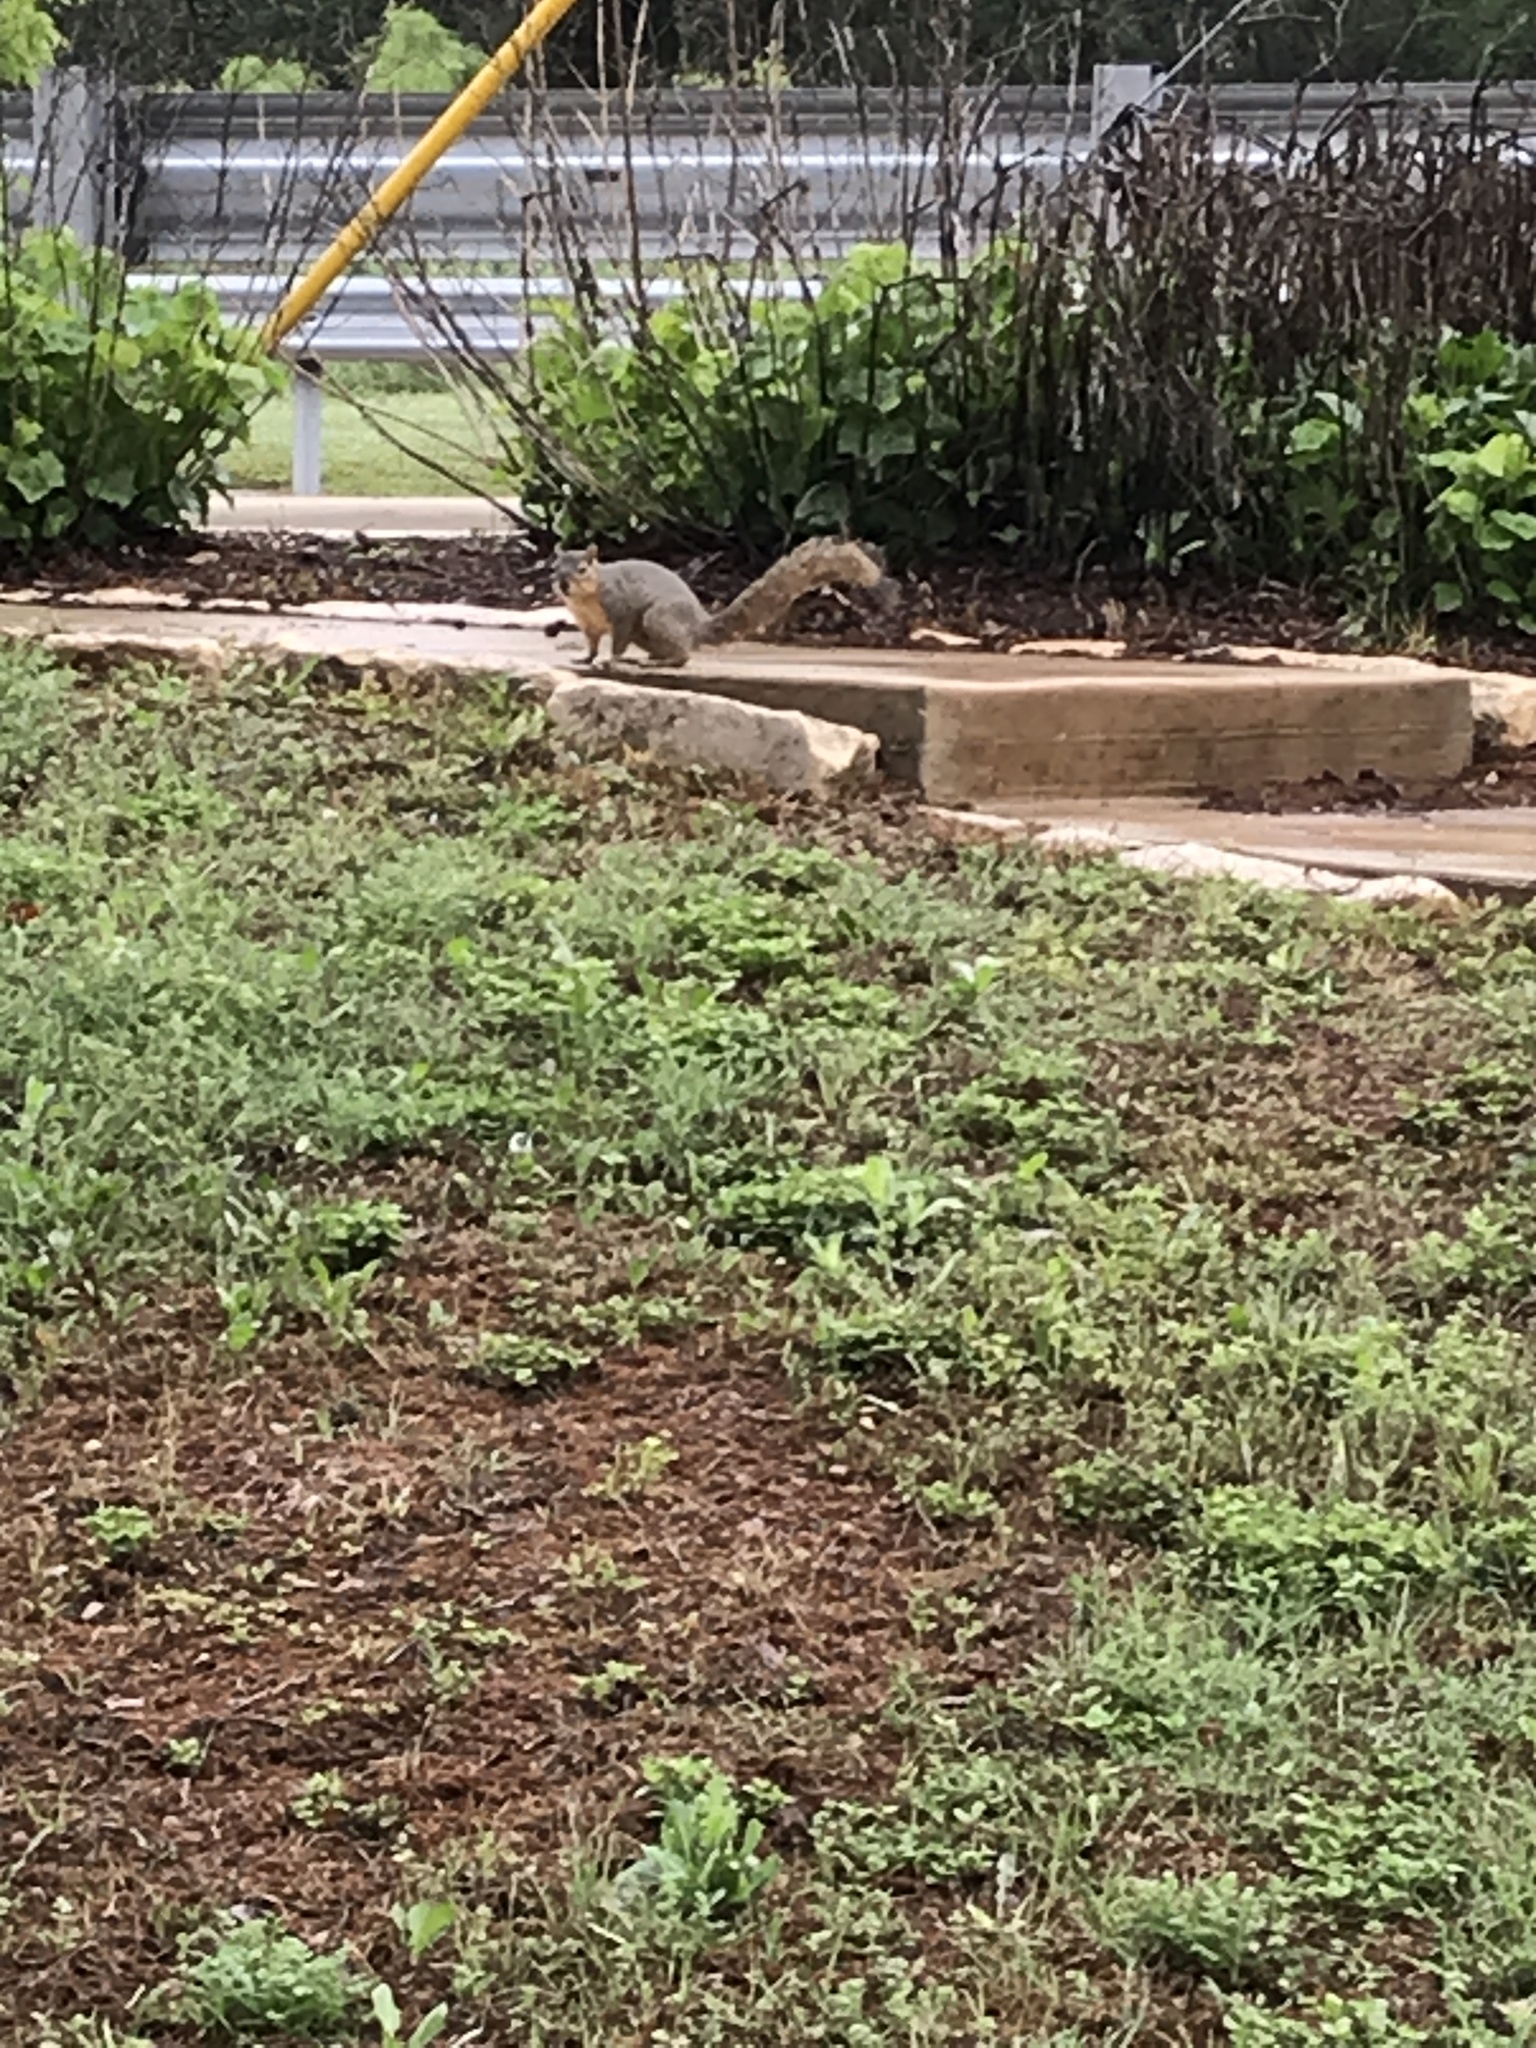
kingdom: Animalia
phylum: Chordata
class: Mammalia
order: Rodentia
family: Sciuridae
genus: Sciurus
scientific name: Sciurus niger
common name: Fox squirrel
